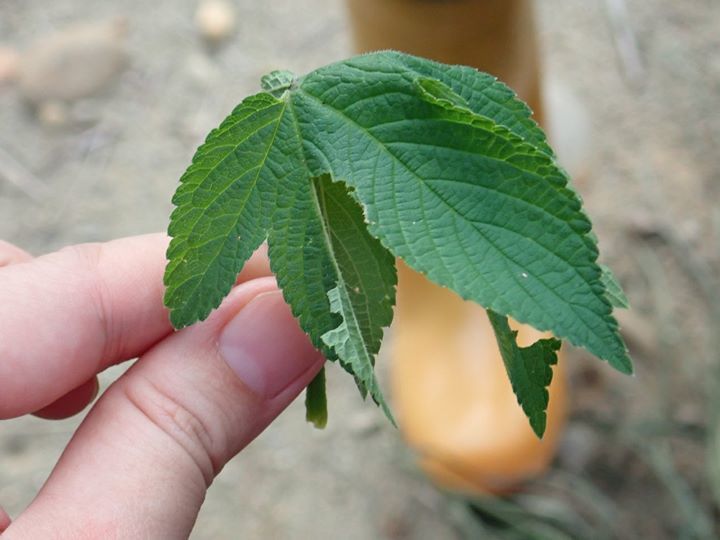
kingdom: Animalia
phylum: Arthropoda
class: Insecta
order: Lepidoptera
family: Nymphalidae
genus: Polygonia
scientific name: Polygonia c-aureum
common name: Asian comma
